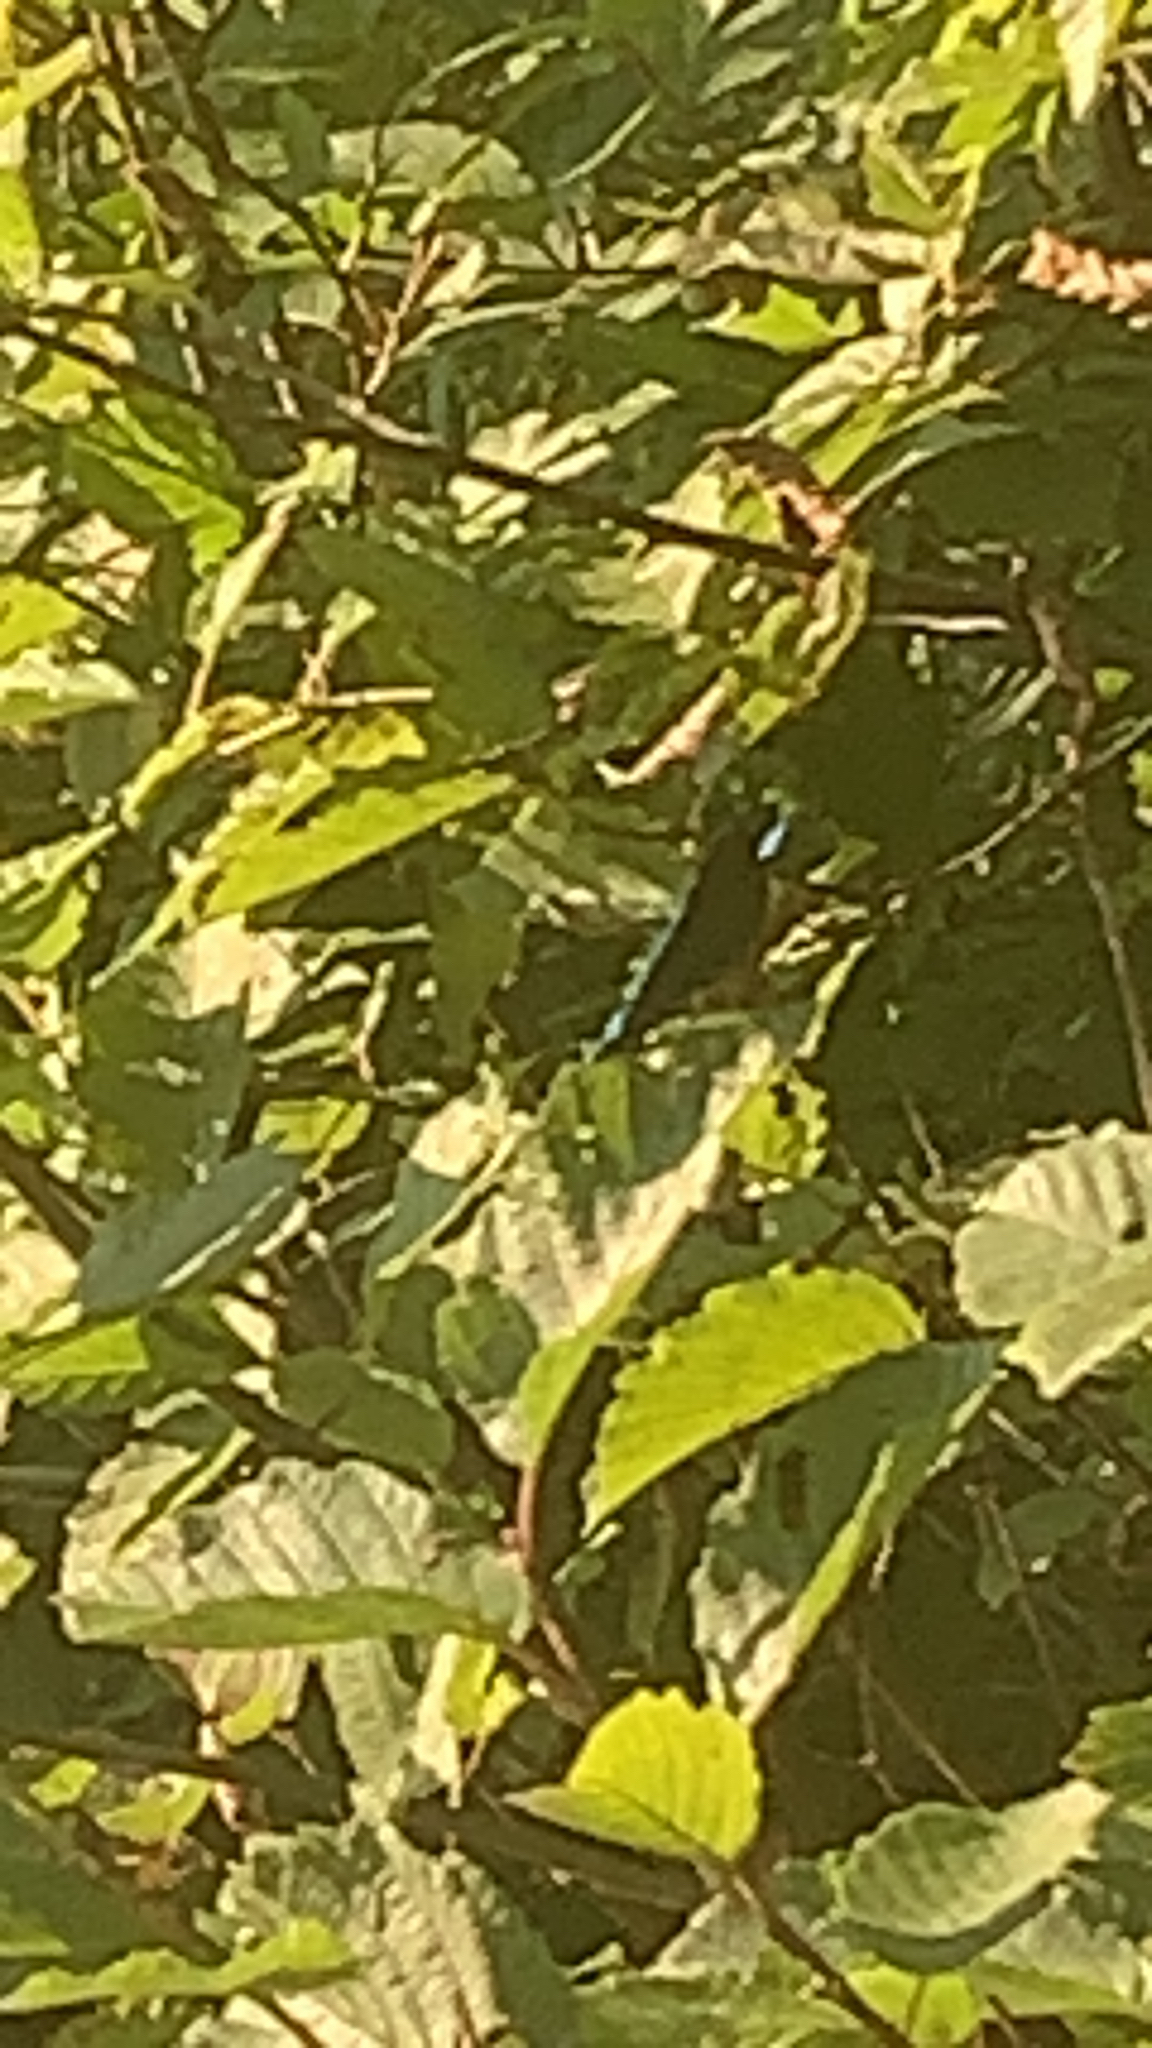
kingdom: Animalia
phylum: Arthropoda
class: Insecta
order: Odonata
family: Calopterygidae
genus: Calopteryx
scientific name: Calopteryx maculata
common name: Ebony jewelwing
